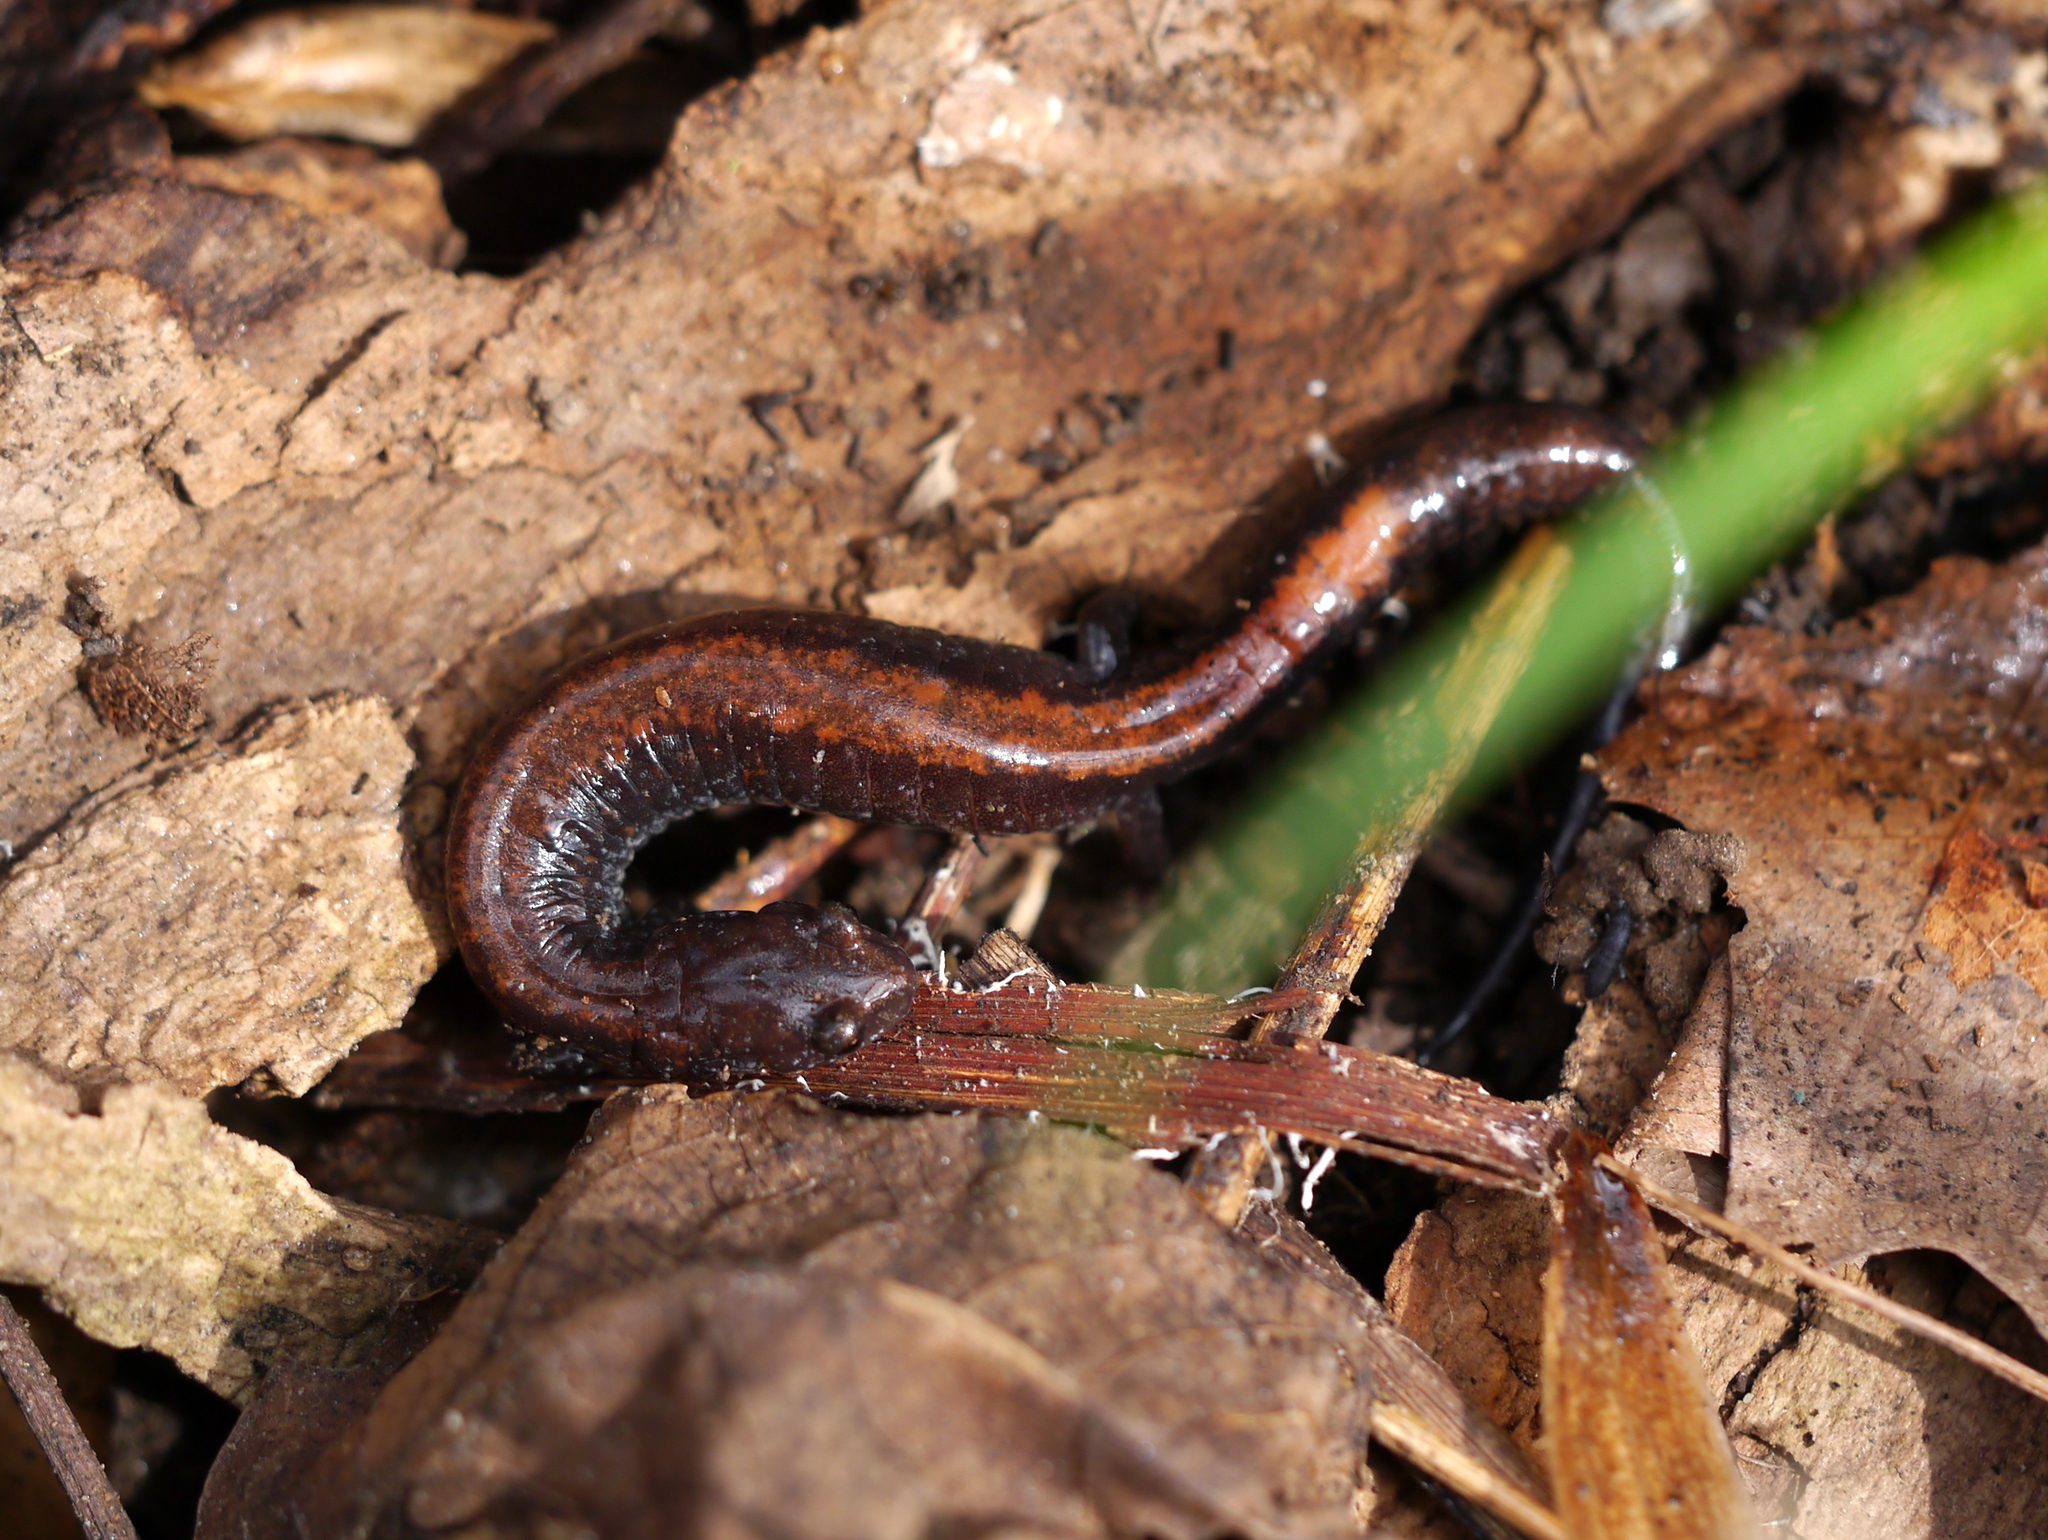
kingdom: Animalia
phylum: Chordata
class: Amphibia
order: Caudata
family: Plethodontidae
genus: Plethodon
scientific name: Plethodon cinereus
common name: Redback salamander
